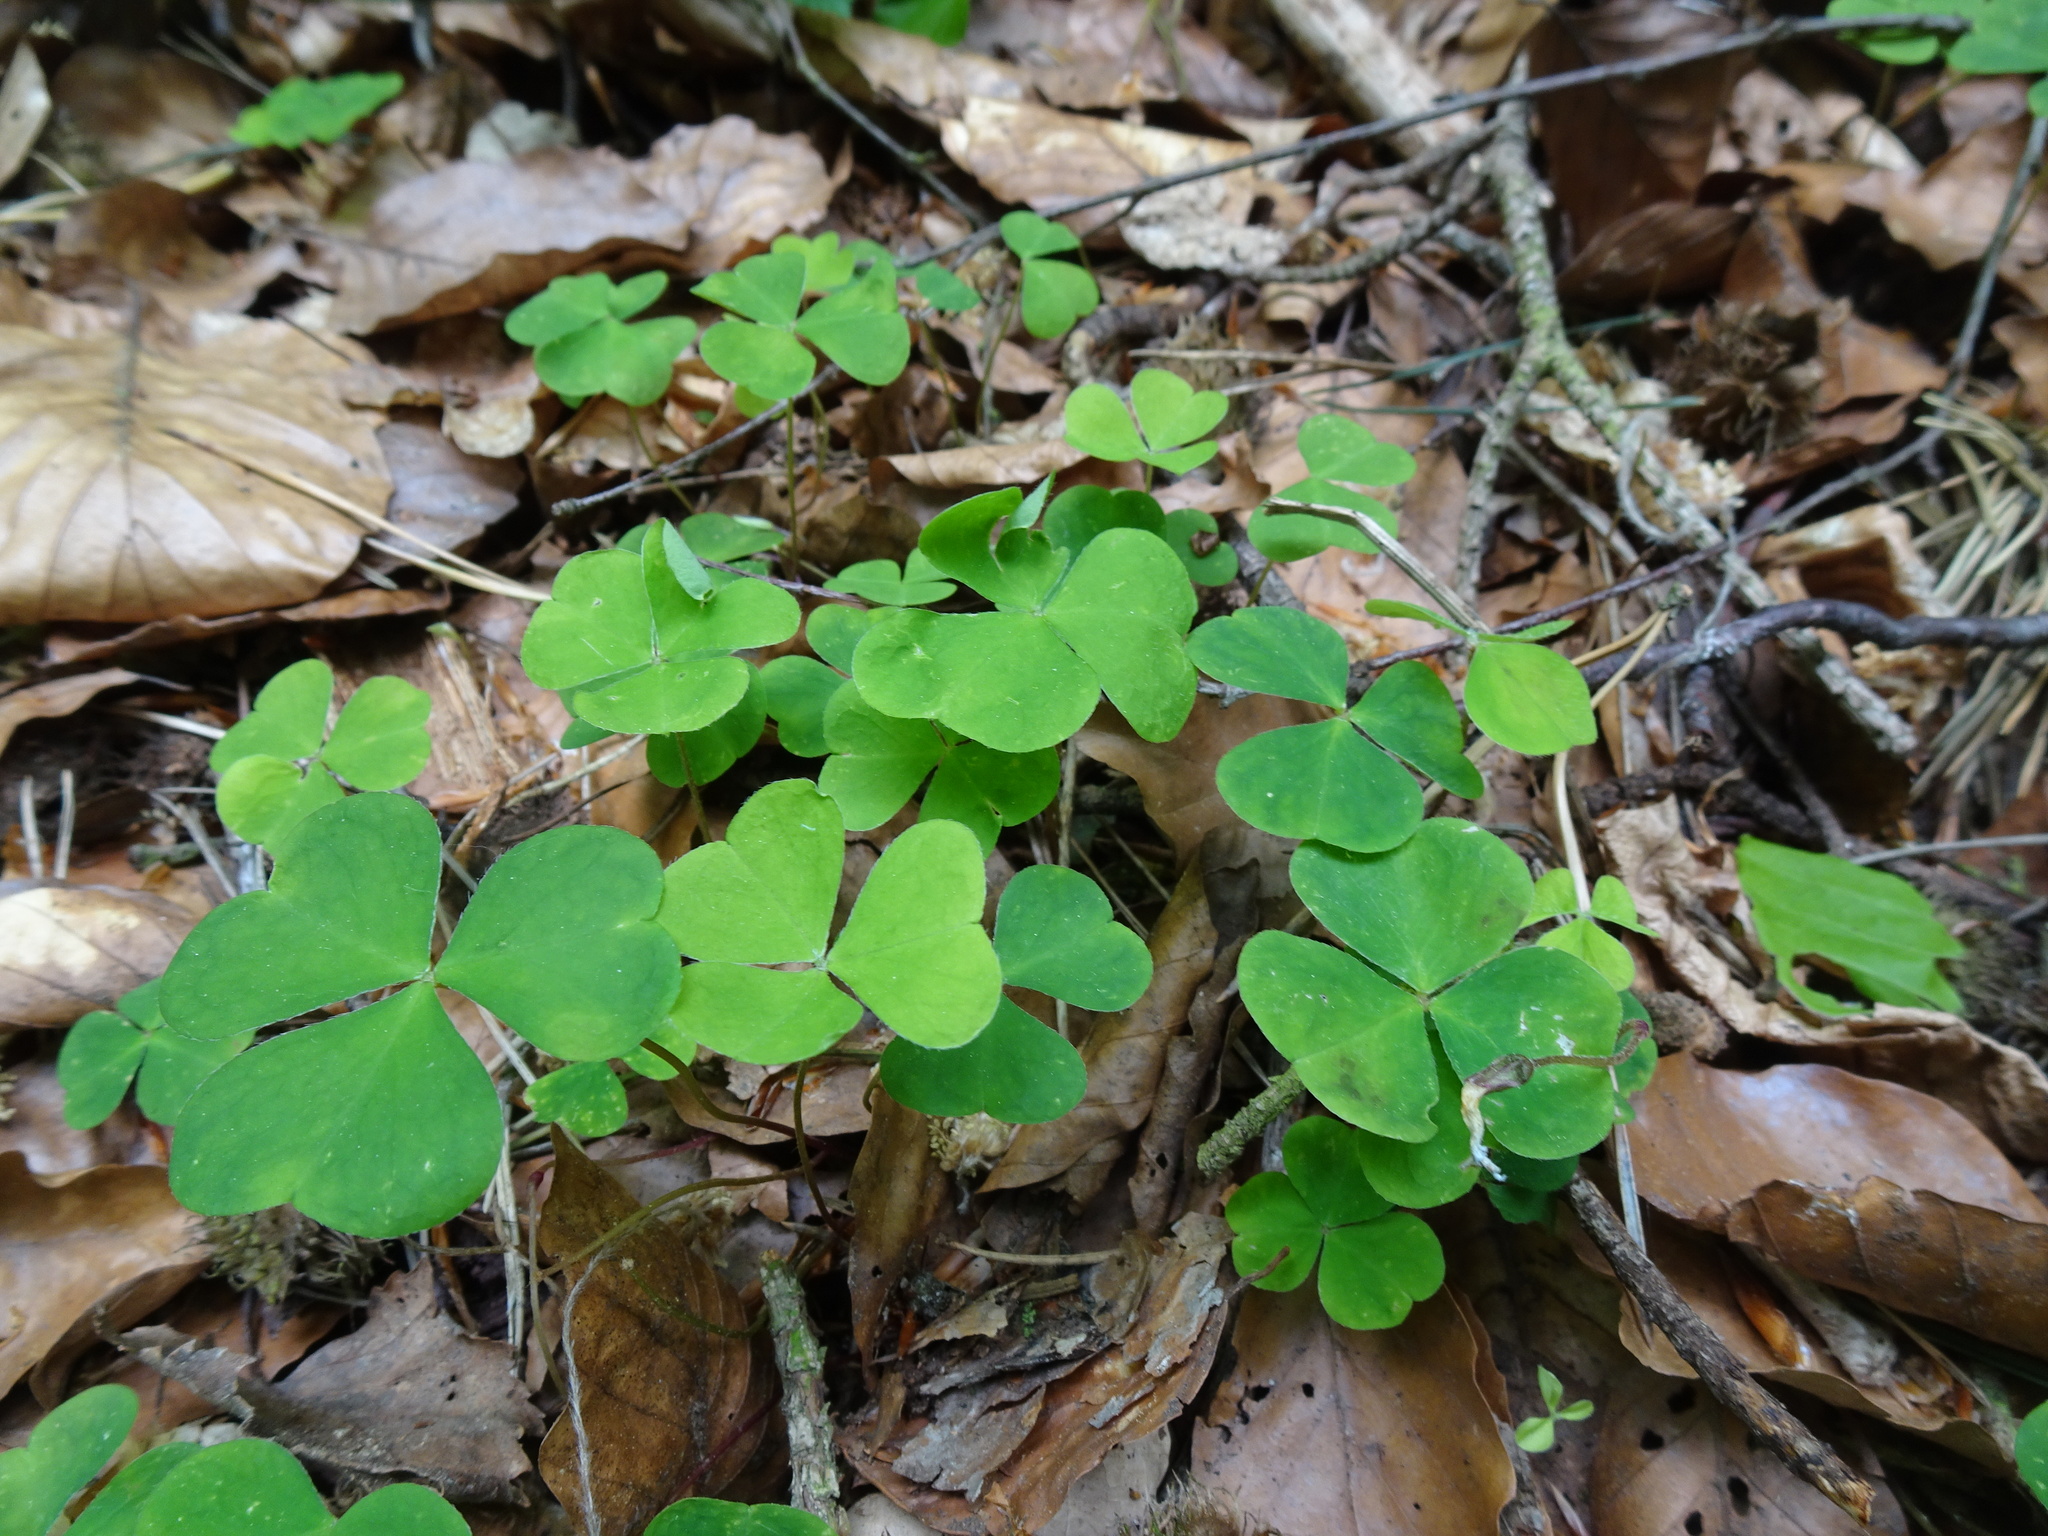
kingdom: Plantae
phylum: Tracheophyta
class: Magnoliopsida
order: Oxalidales
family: Oxalidaceae
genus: Oxalis
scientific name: Oxalis acetosella
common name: Wood-sorrel
